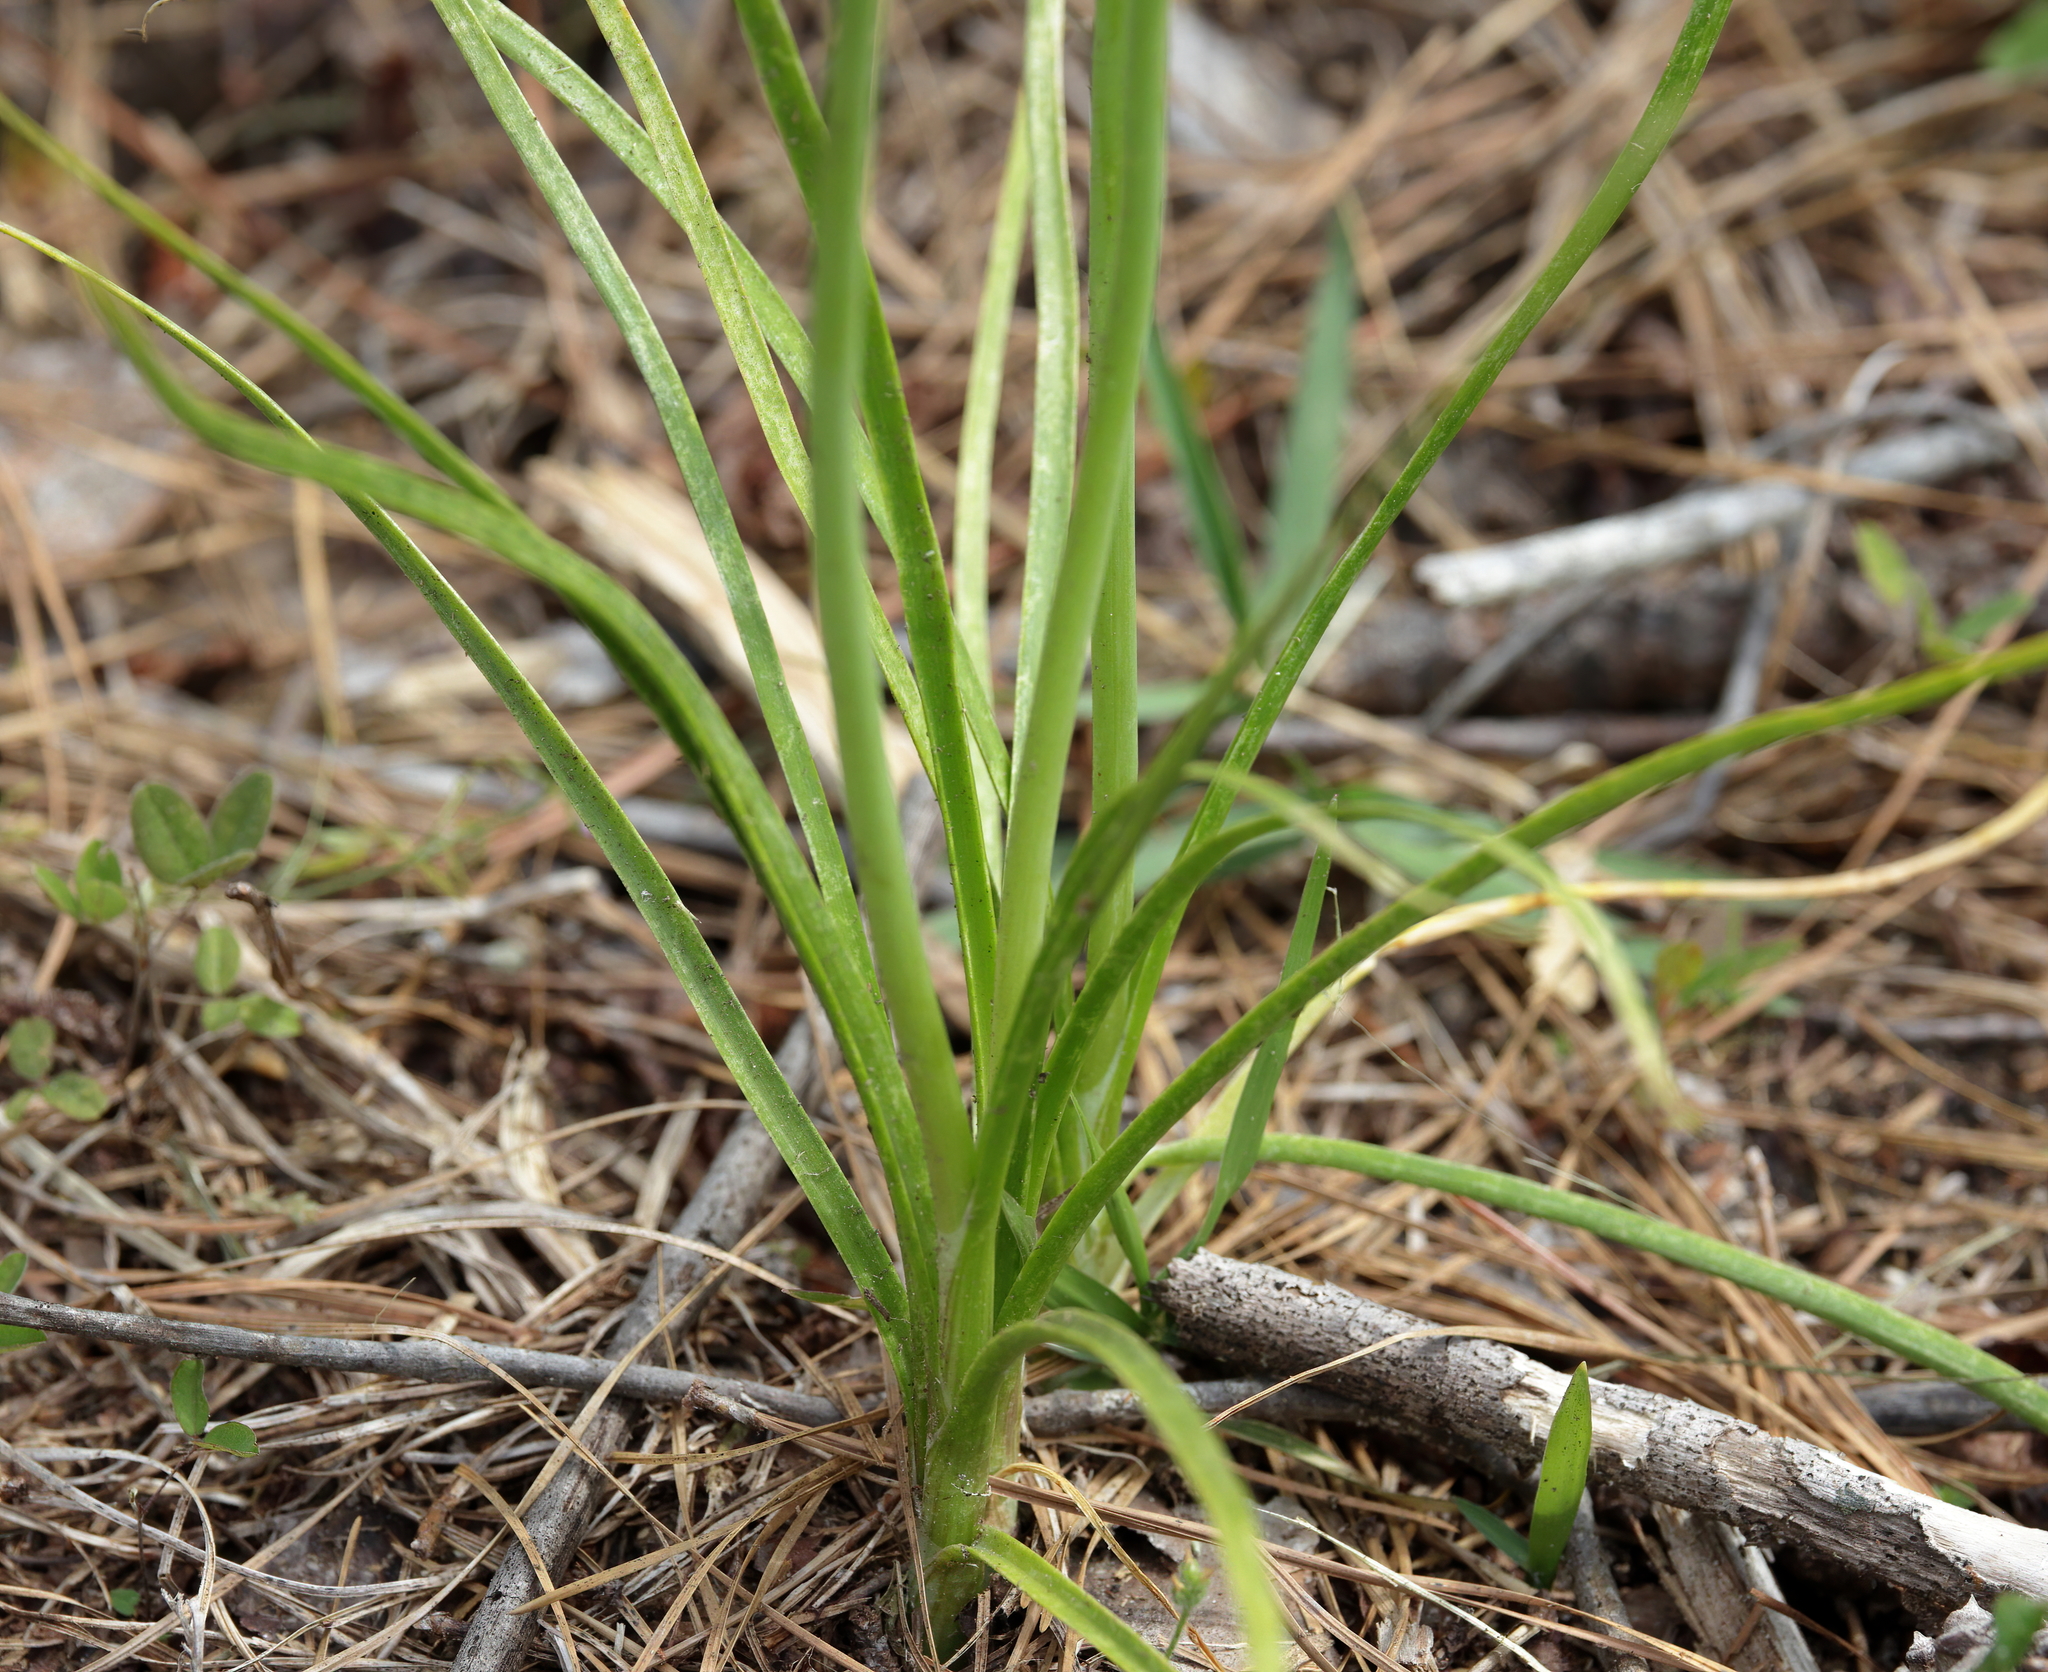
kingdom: Plantae
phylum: Tracheophyta
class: Liliopsida
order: Asparagales
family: Amaryllidaceae
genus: Allium
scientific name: Allium canadense
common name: Meadow garlic
